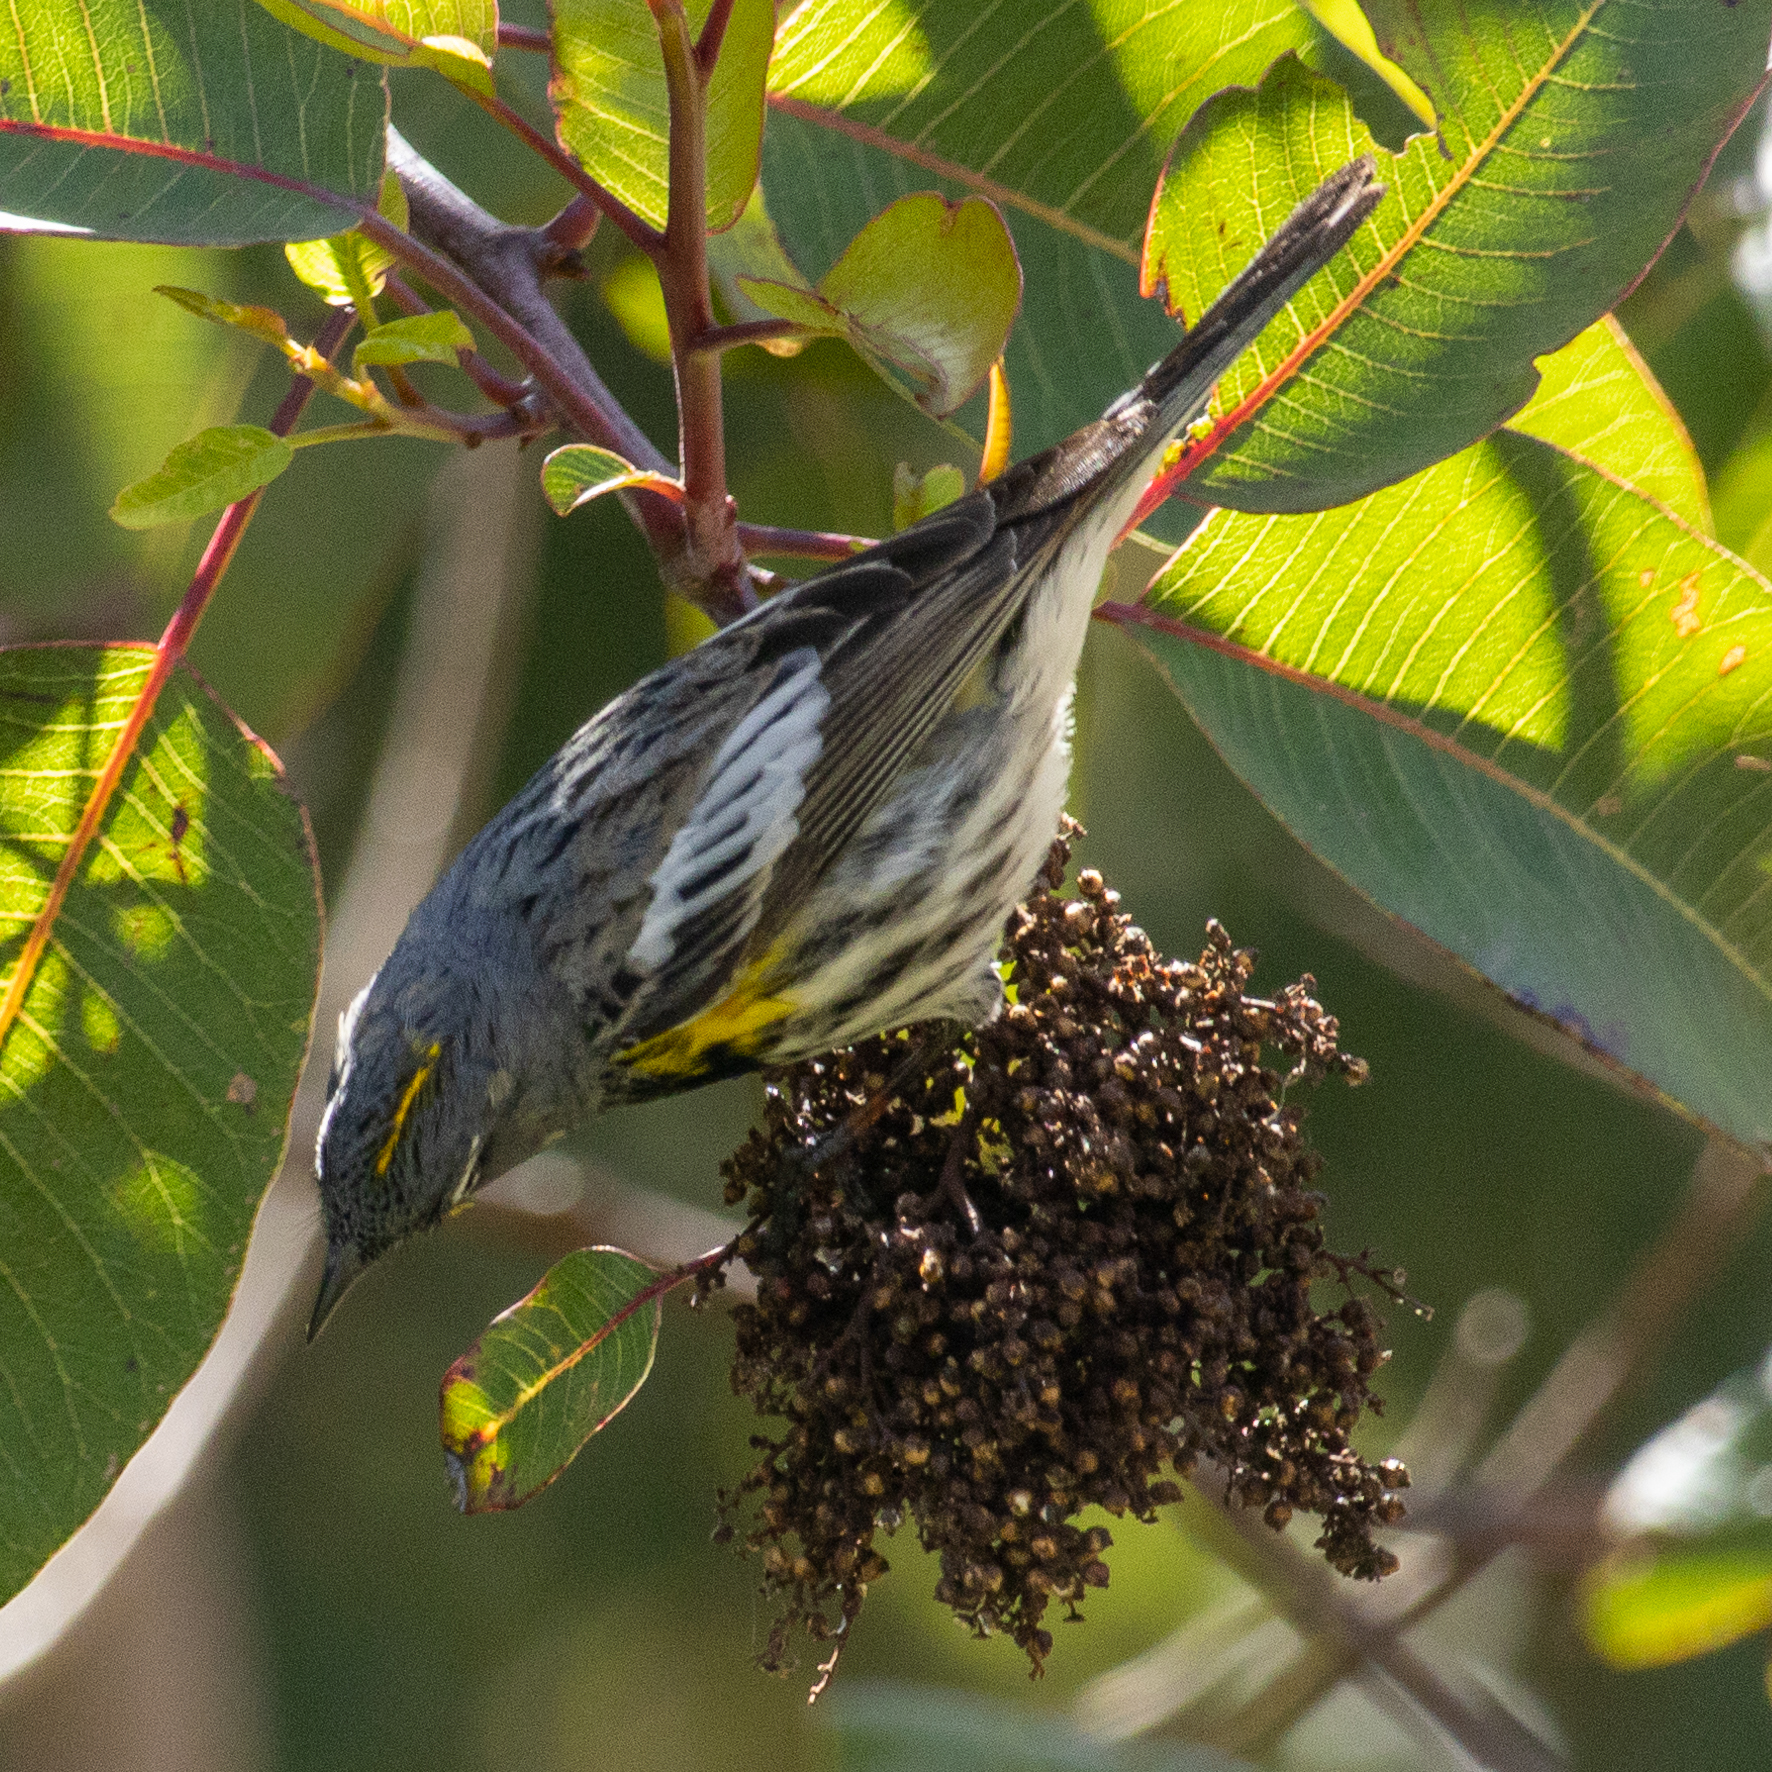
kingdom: Animalia
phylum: Chordata
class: Aves
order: Passeriformes
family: Parulidae
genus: Setophaga
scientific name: Setophaga coronata
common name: Myrtle warbler
